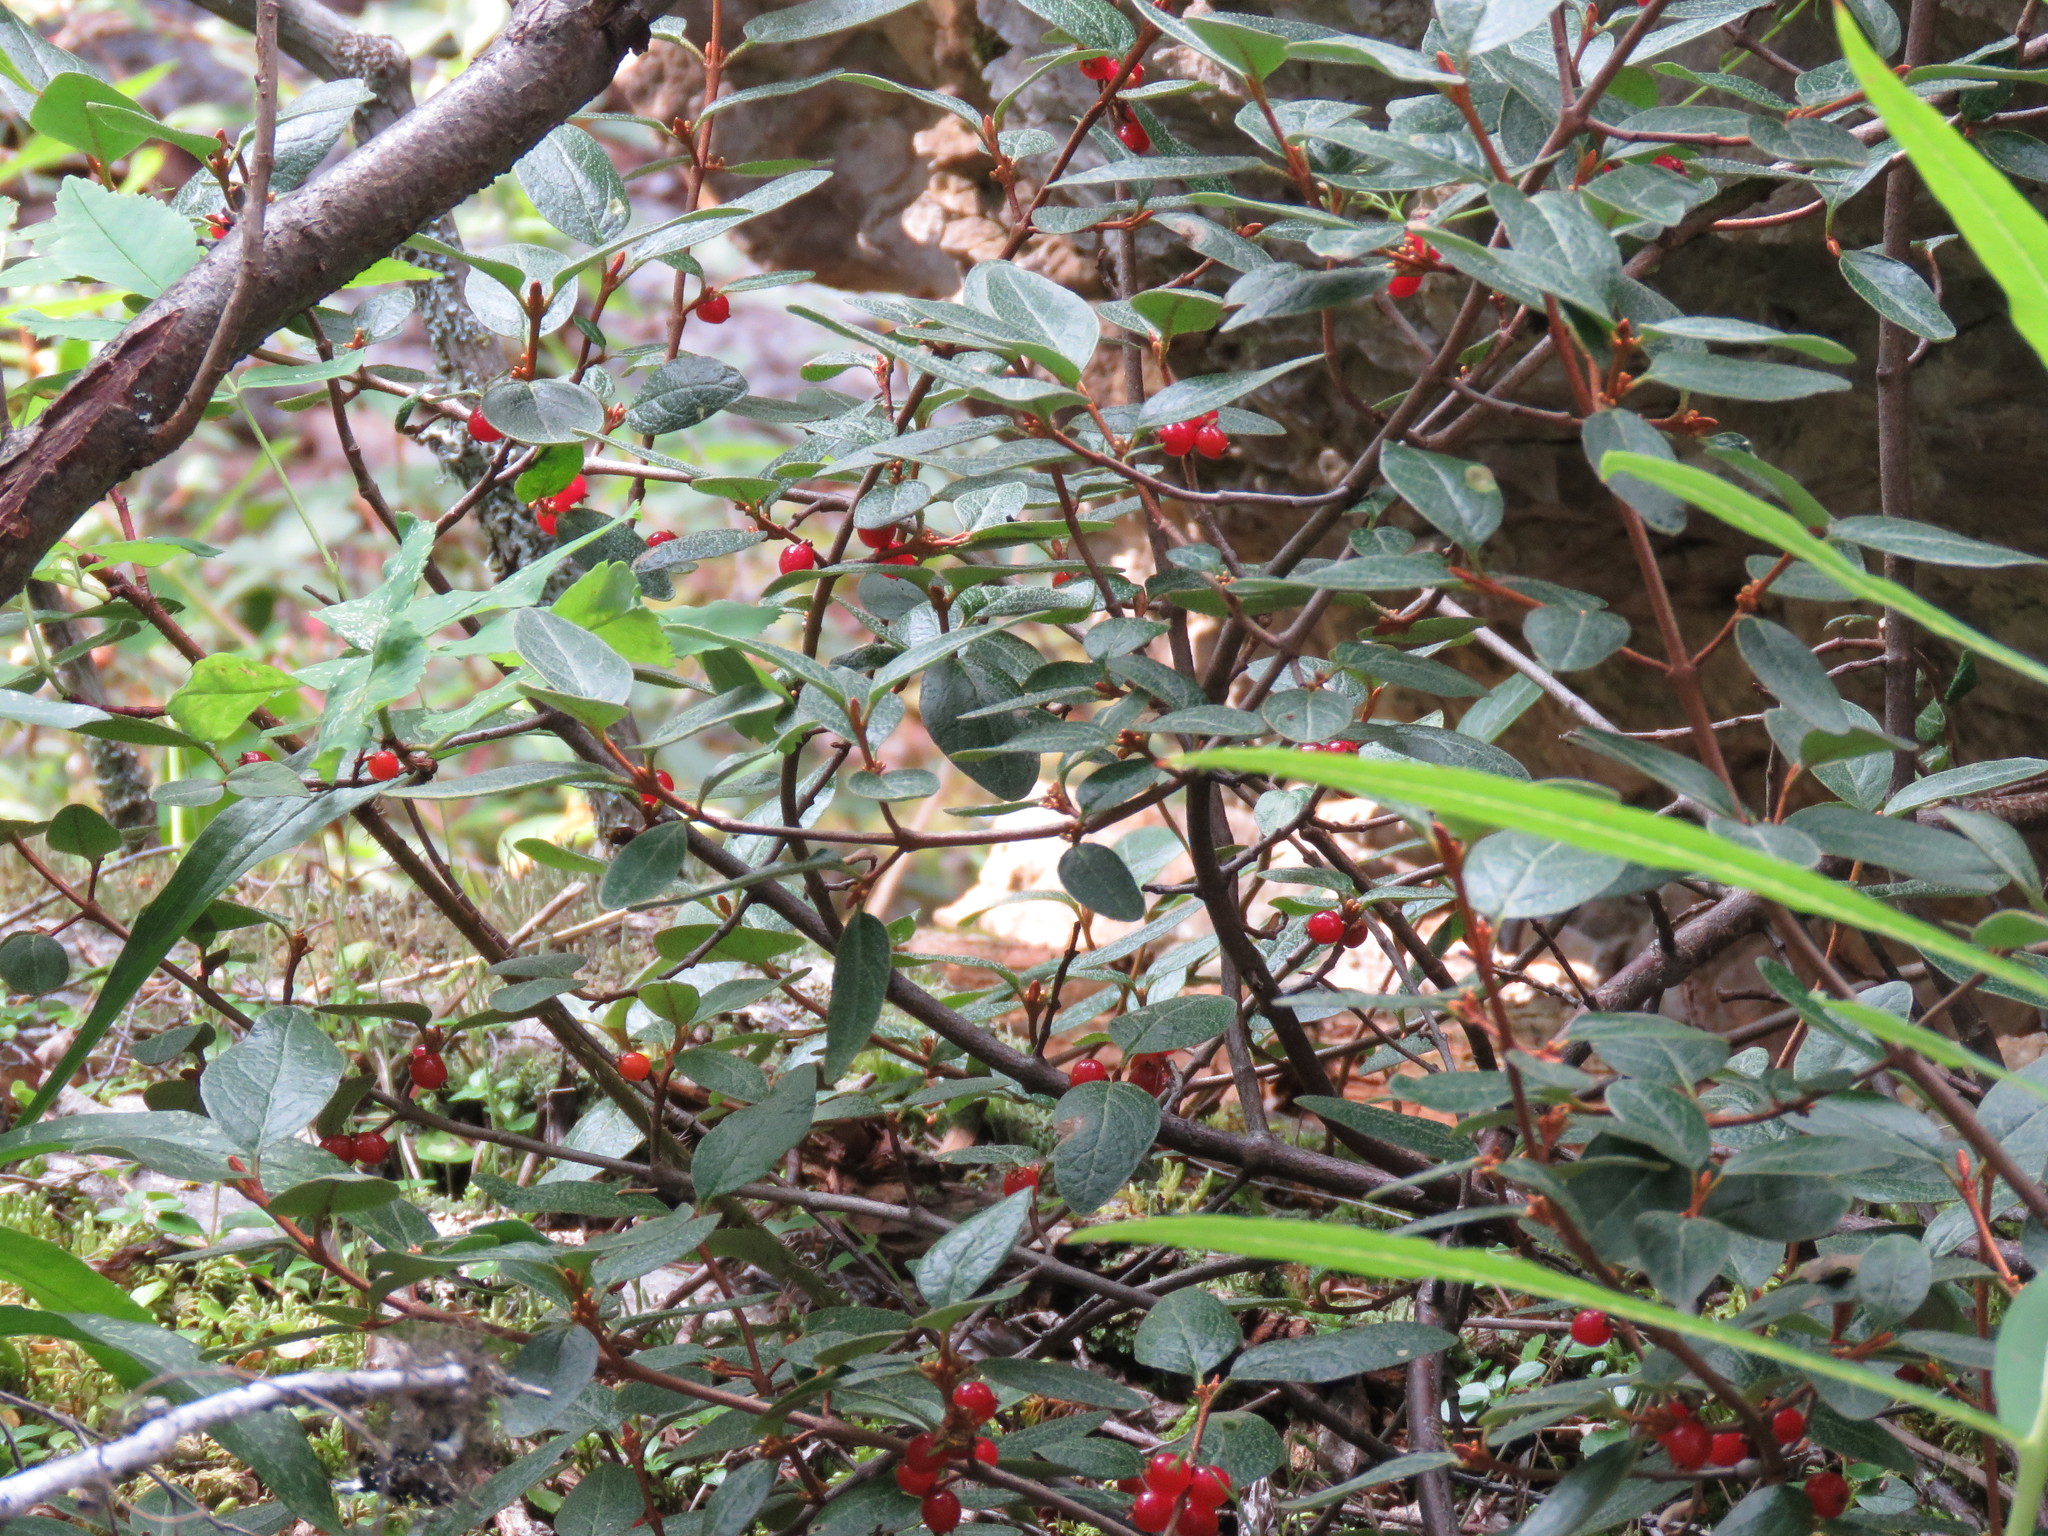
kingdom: Plantae
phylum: Tracheophyta
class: Magnoliopsida
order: Rosales
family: Elaeagnaceae
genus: Shepherdia
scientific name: Shepherdia canadensis
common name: Soapberry
